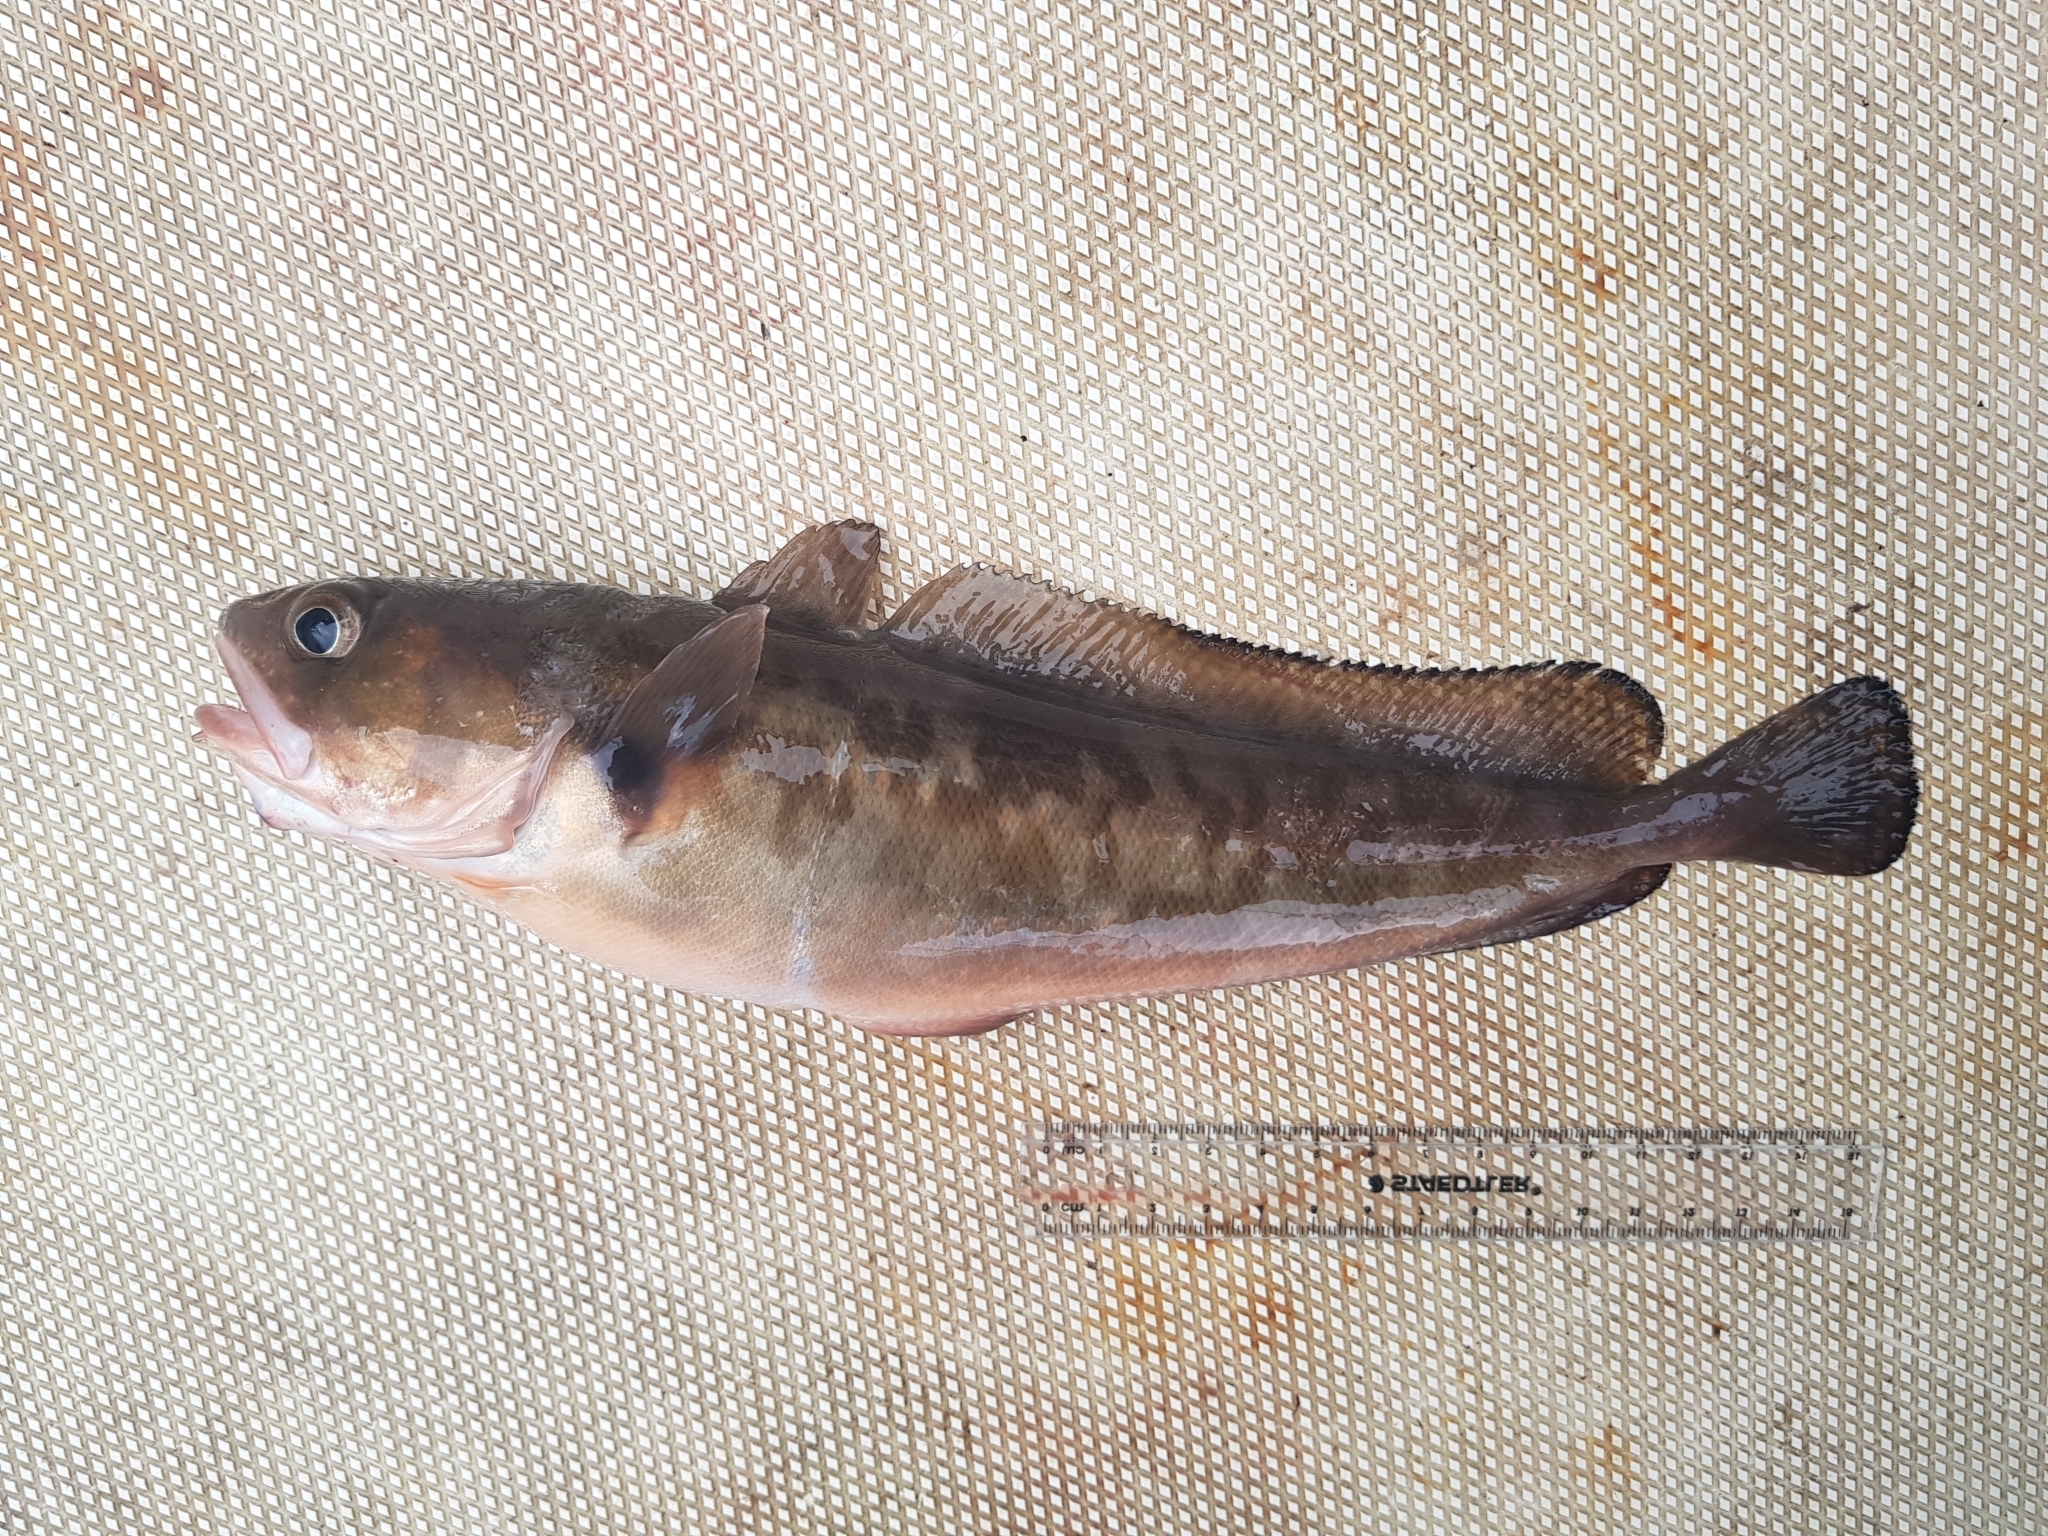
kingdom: Animalia
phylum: Chordata
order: Gadiformes
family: Moridae
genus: Pseudophycis
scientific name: Pseudophycis palmata
